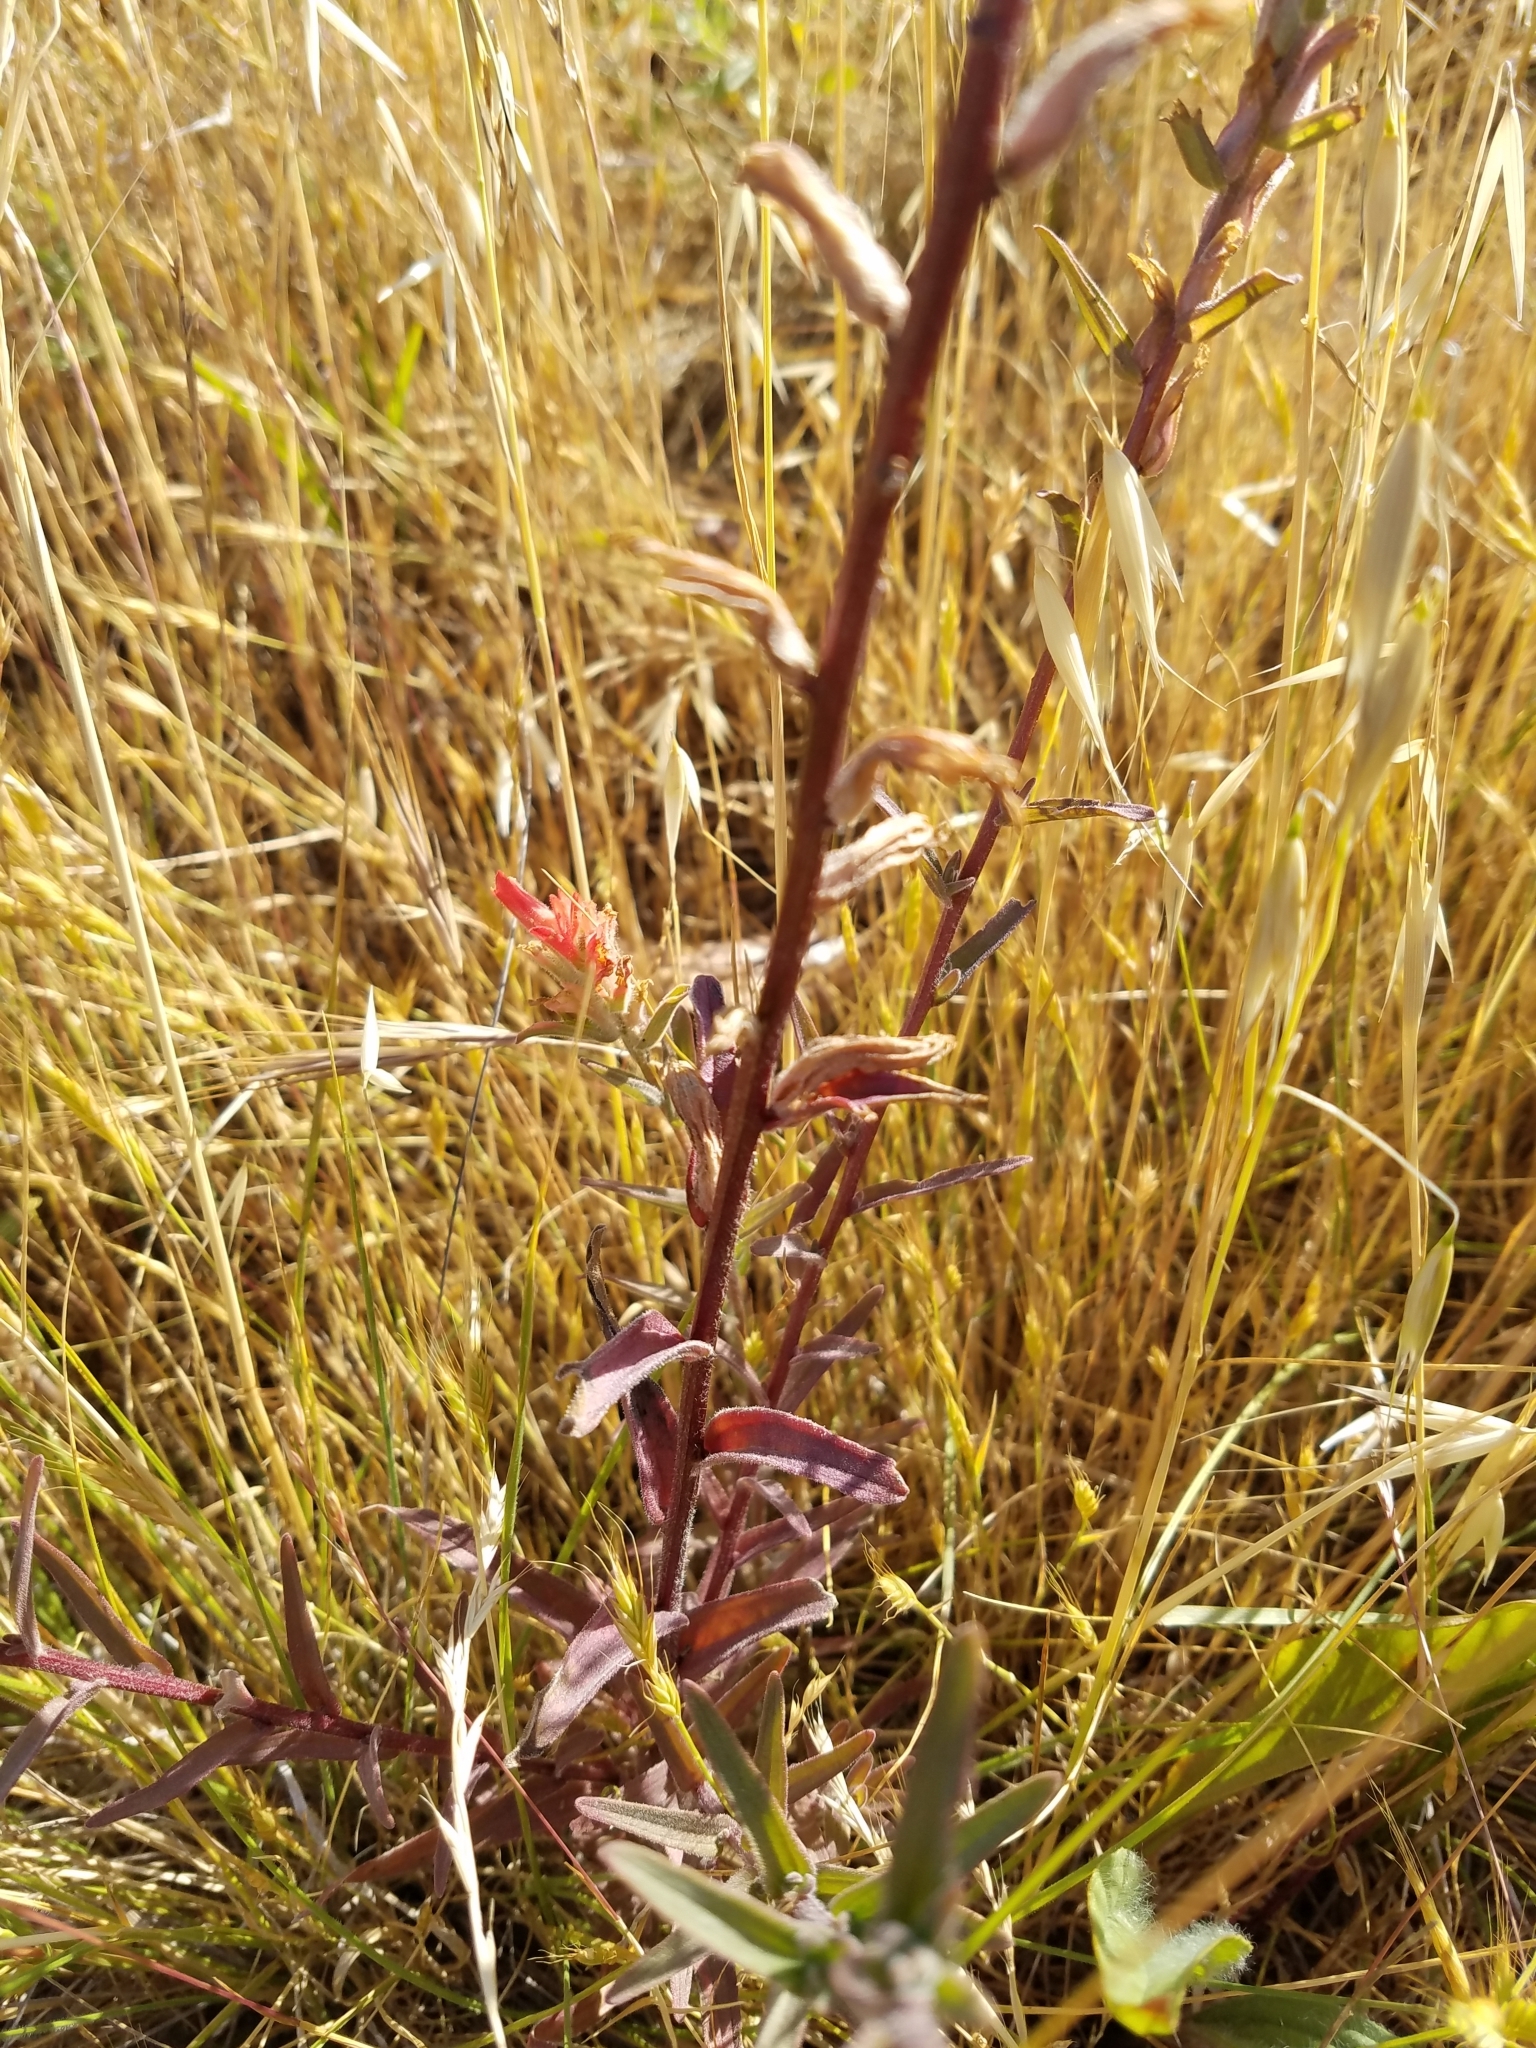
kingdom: Plantae
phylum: Tracheophyta
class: Magnoliopsida
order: Lamiales
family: Orobanchaceae
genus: Castilleja
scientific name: Castilleja affinis
